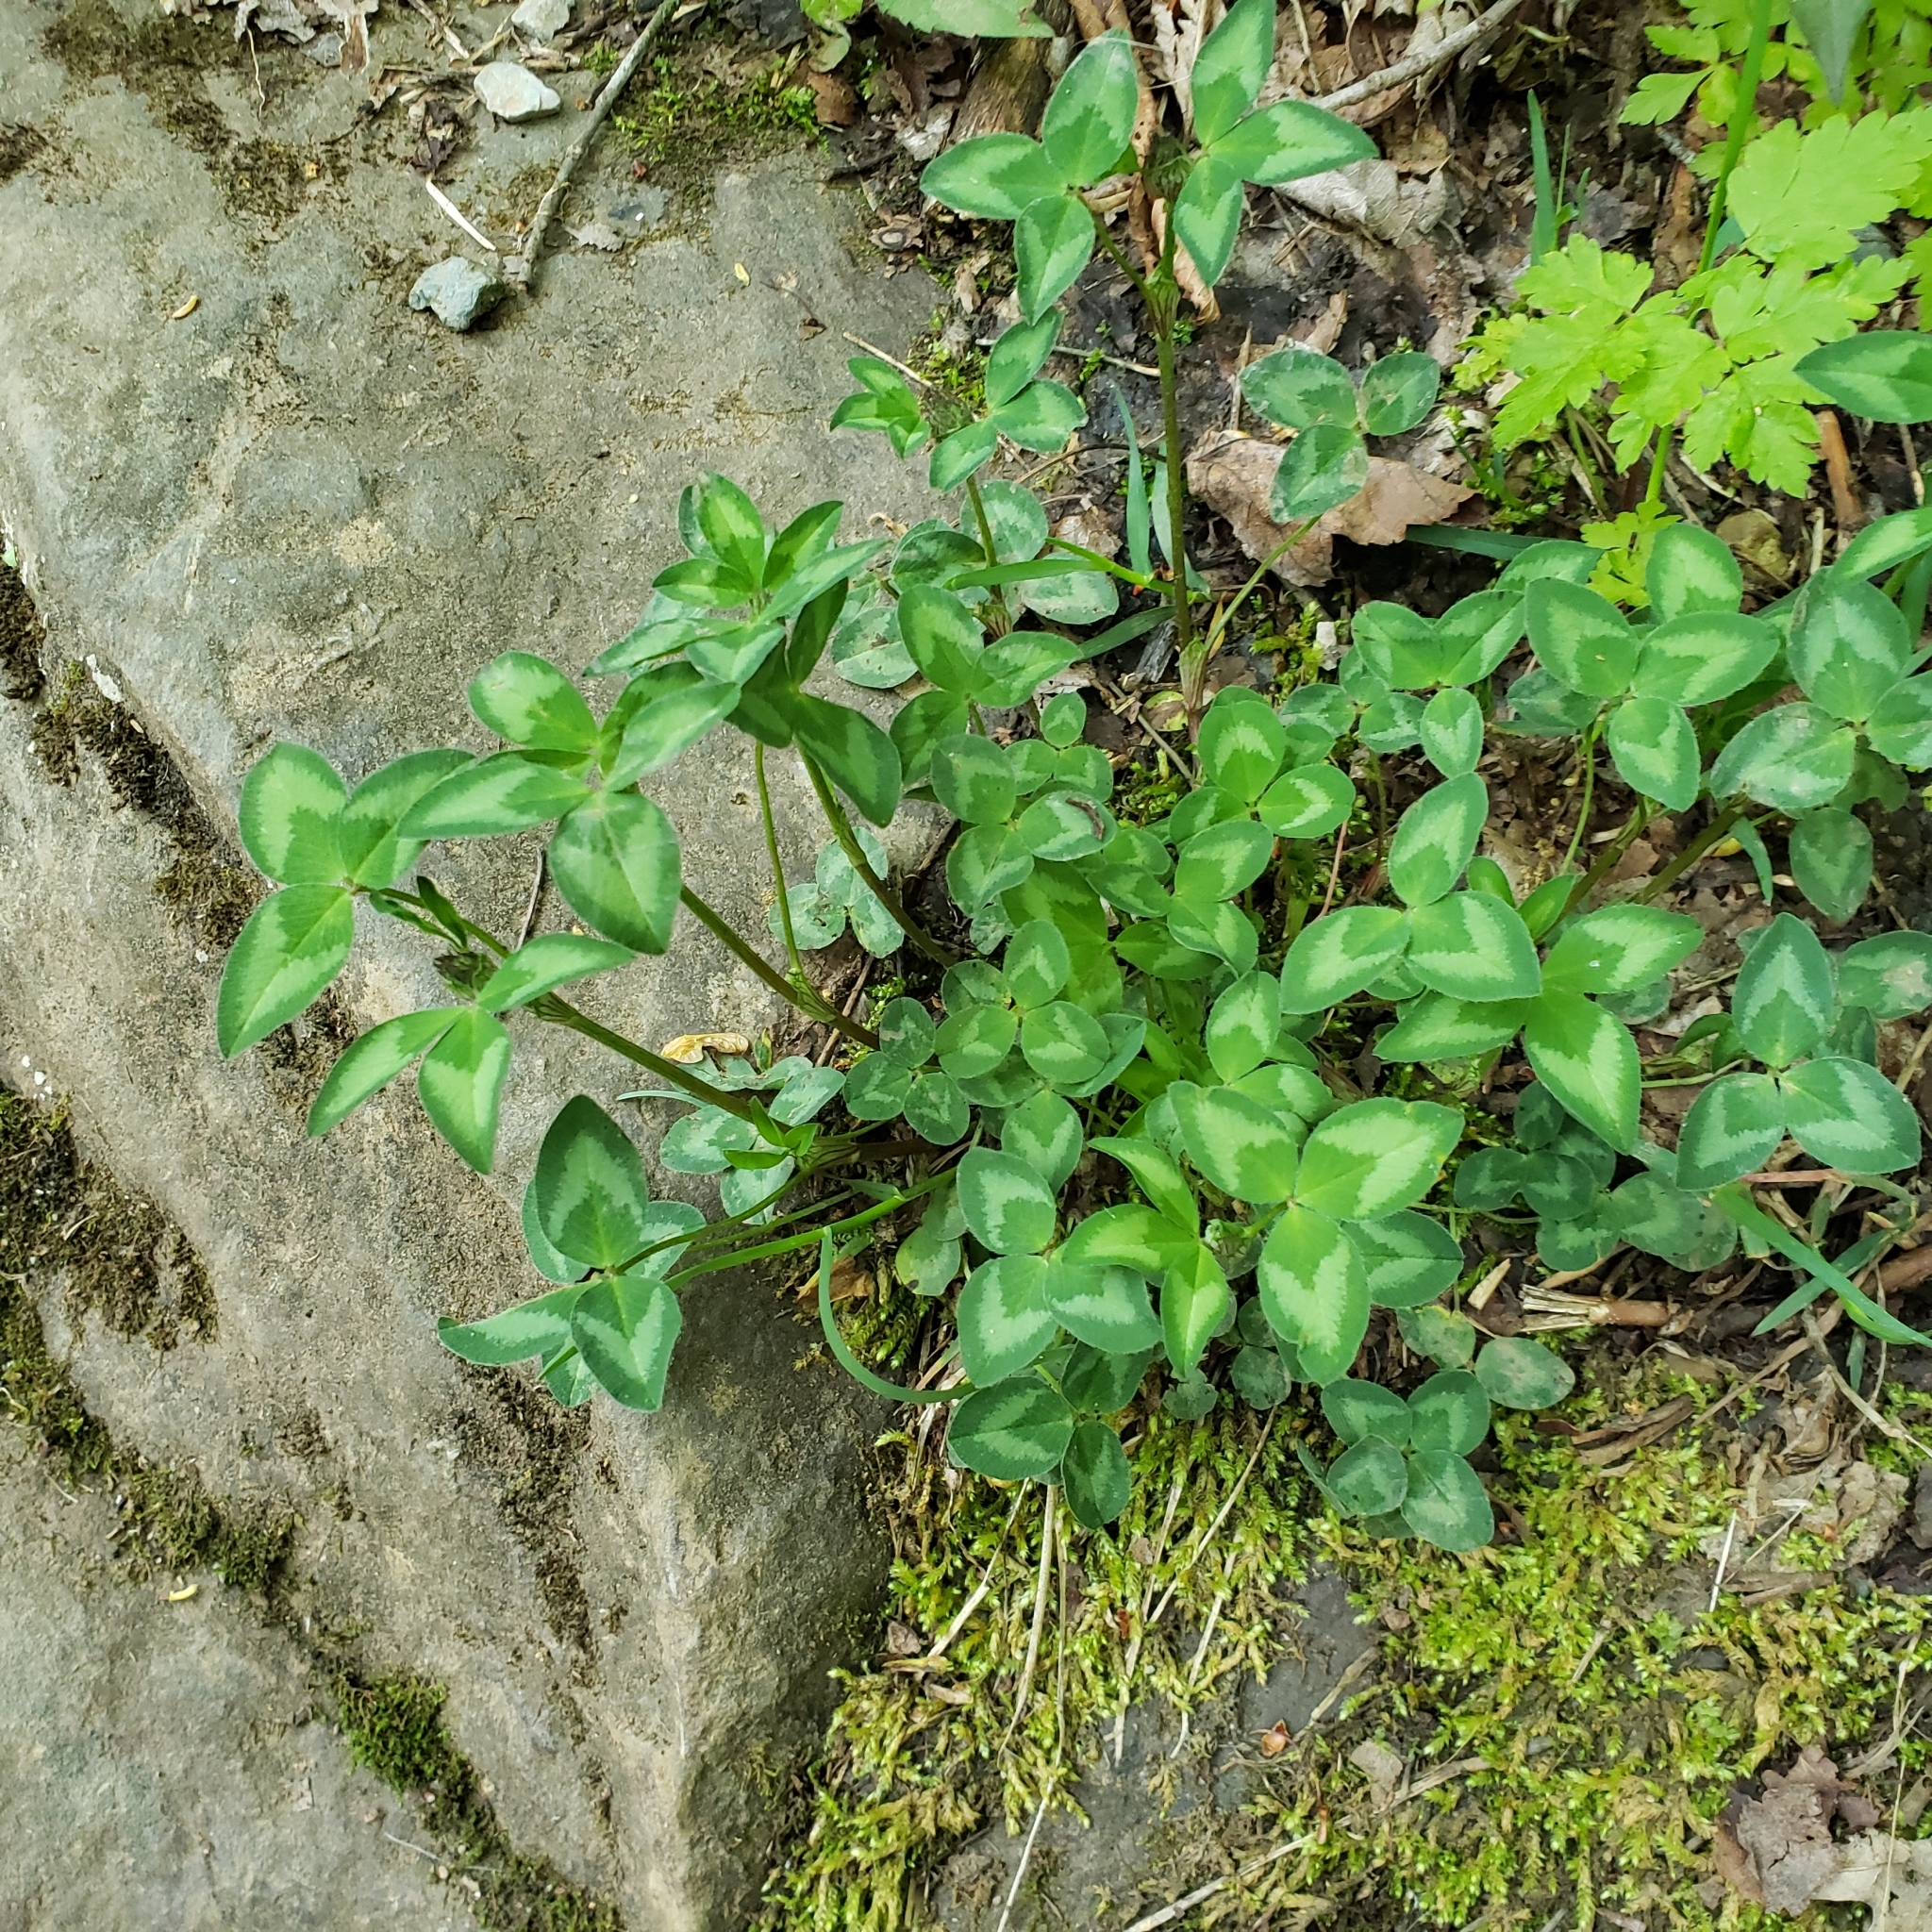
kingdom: Plantae
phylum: Tracheophyta
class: Magnoliopsida
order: Fabales
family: Fabaceae
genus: Trifolium
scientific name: Trifolium pratense
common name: Red clover
